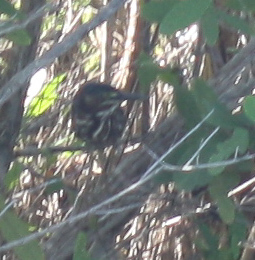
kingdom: Animalia
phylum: Chordata
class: Aves
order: Pelecaniformes
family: Ardeidae
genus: Butorides
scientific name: Butorides virescens
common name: Green heron
